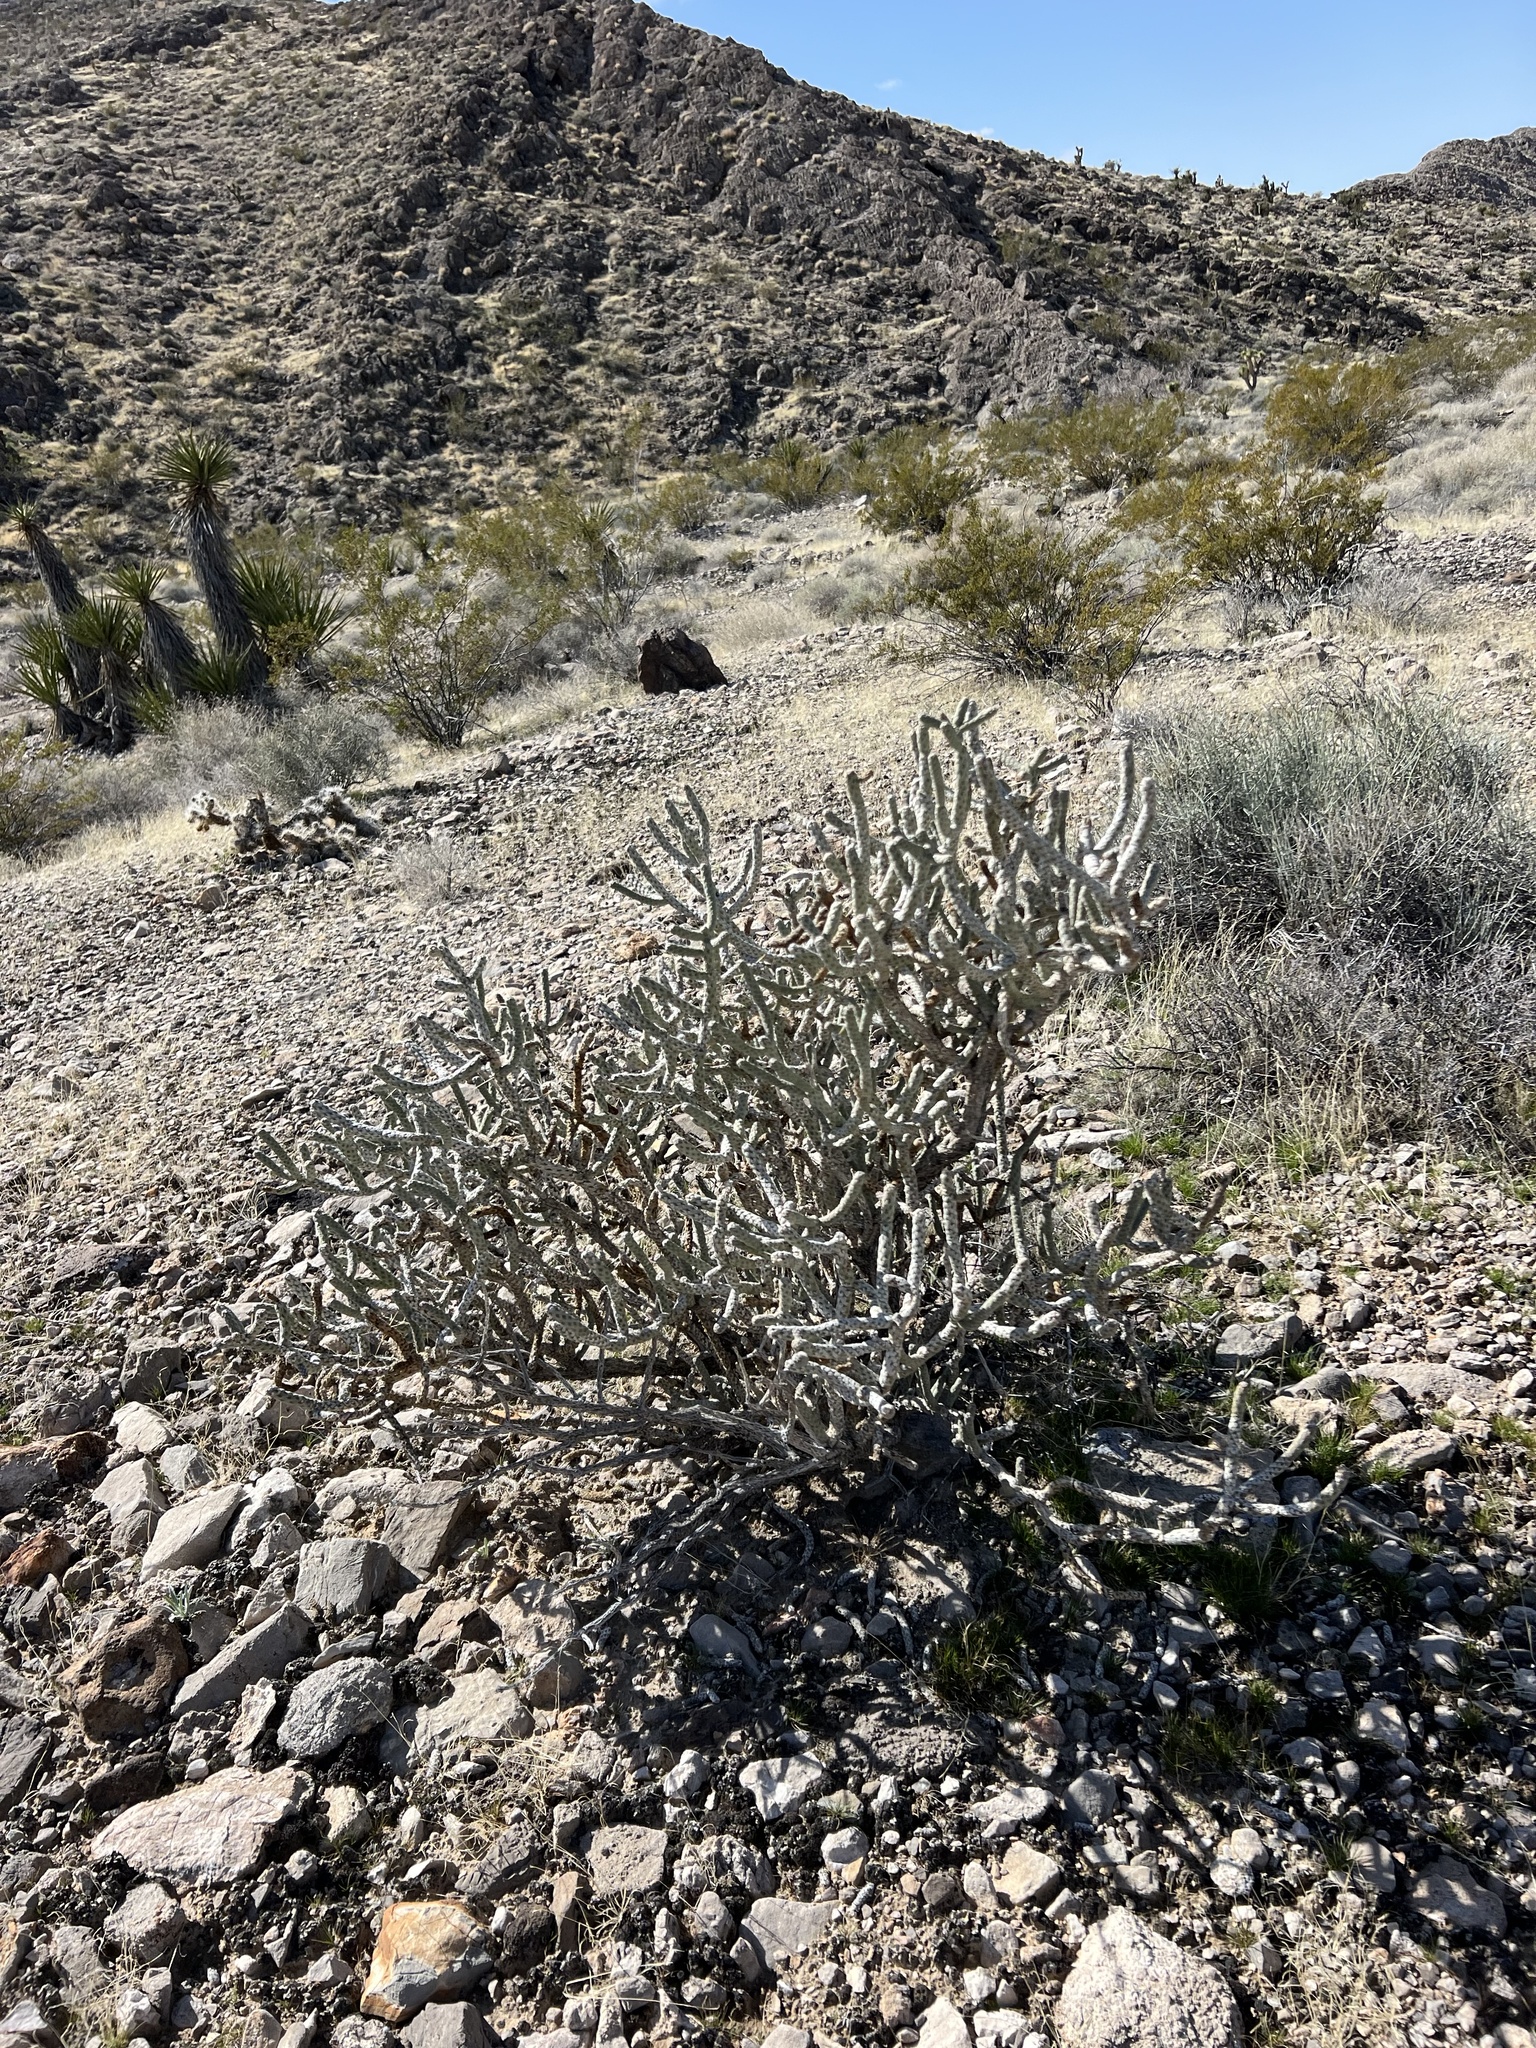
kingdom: Plantae
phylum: Tracheophyta
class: Magnoliopsida
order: Caryophyllales
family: Cactaceae
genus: Cylindropuntia
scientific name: Cylindropuntia ramosissima
